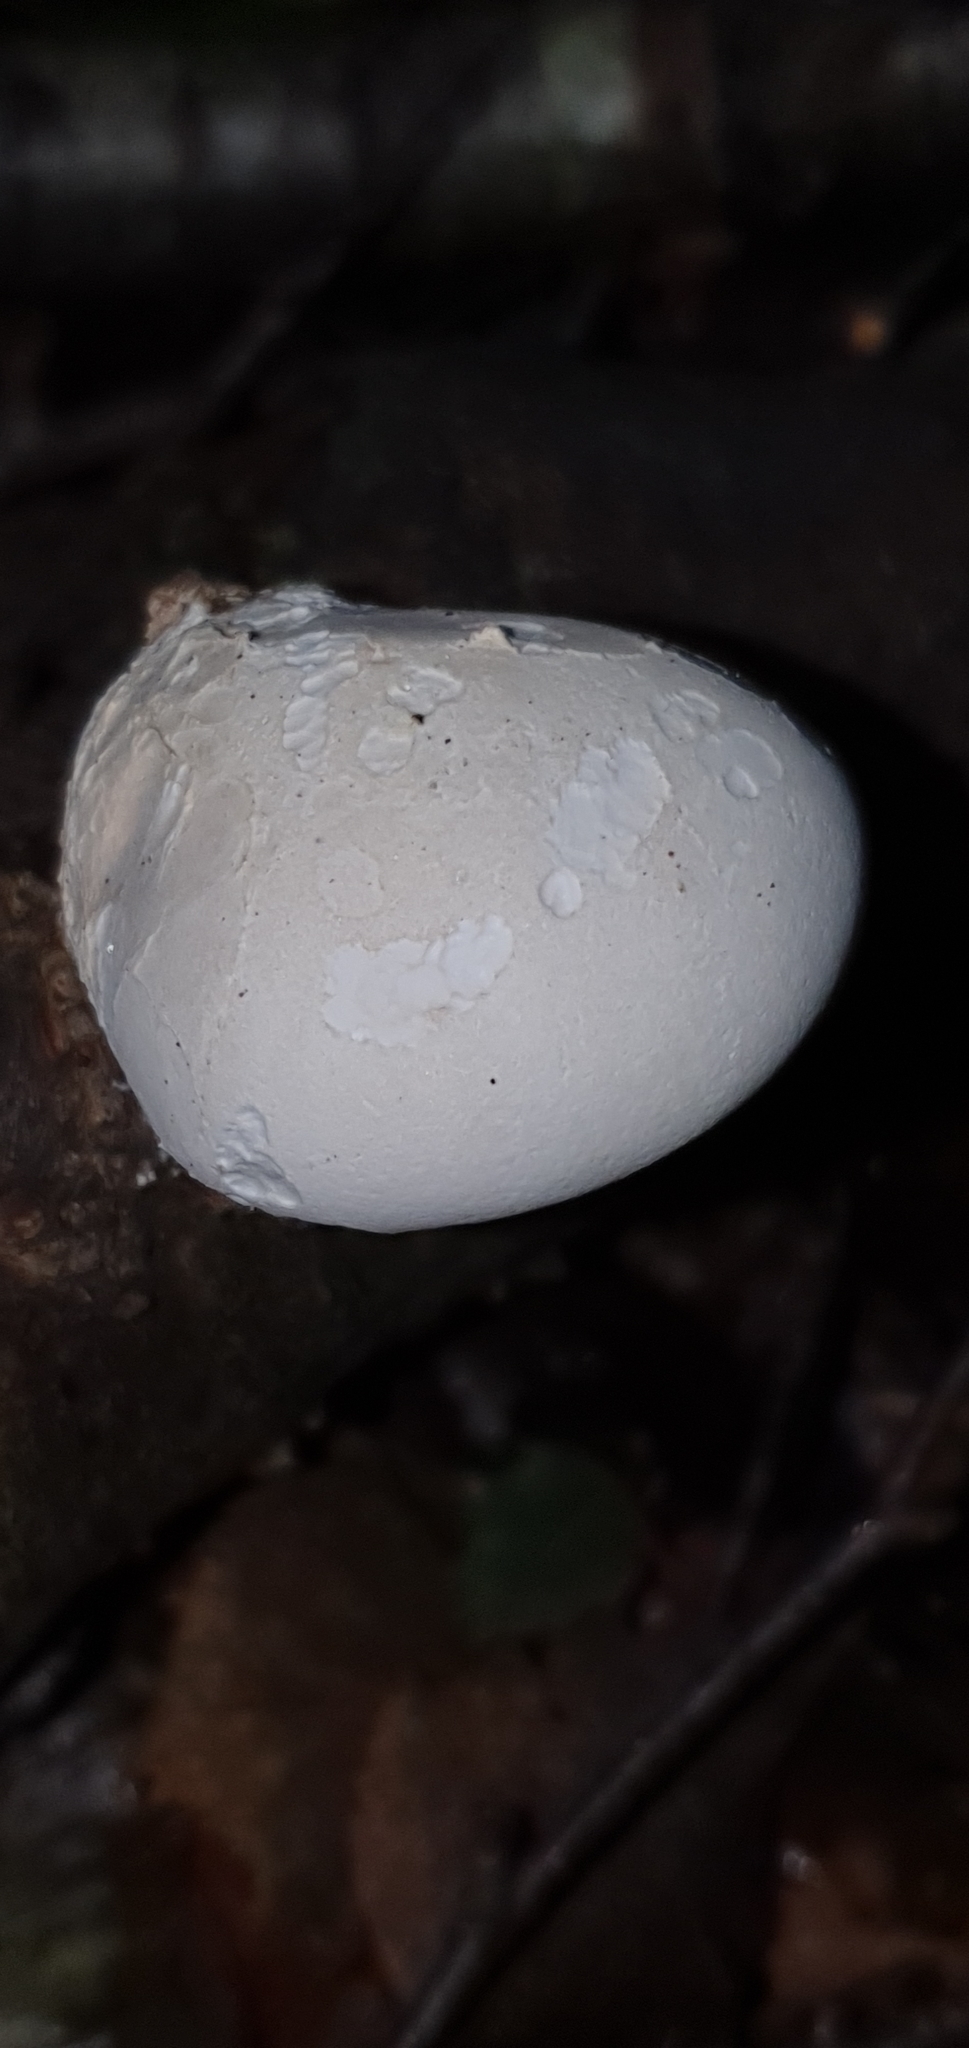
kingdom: Fungi
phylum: Basidiomycota
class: Agaricomycetes
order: Polyporales
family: Fomitopsidaceae
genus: Fomitopsis
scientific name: Fomitopsis betulina
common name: Birch polypore
